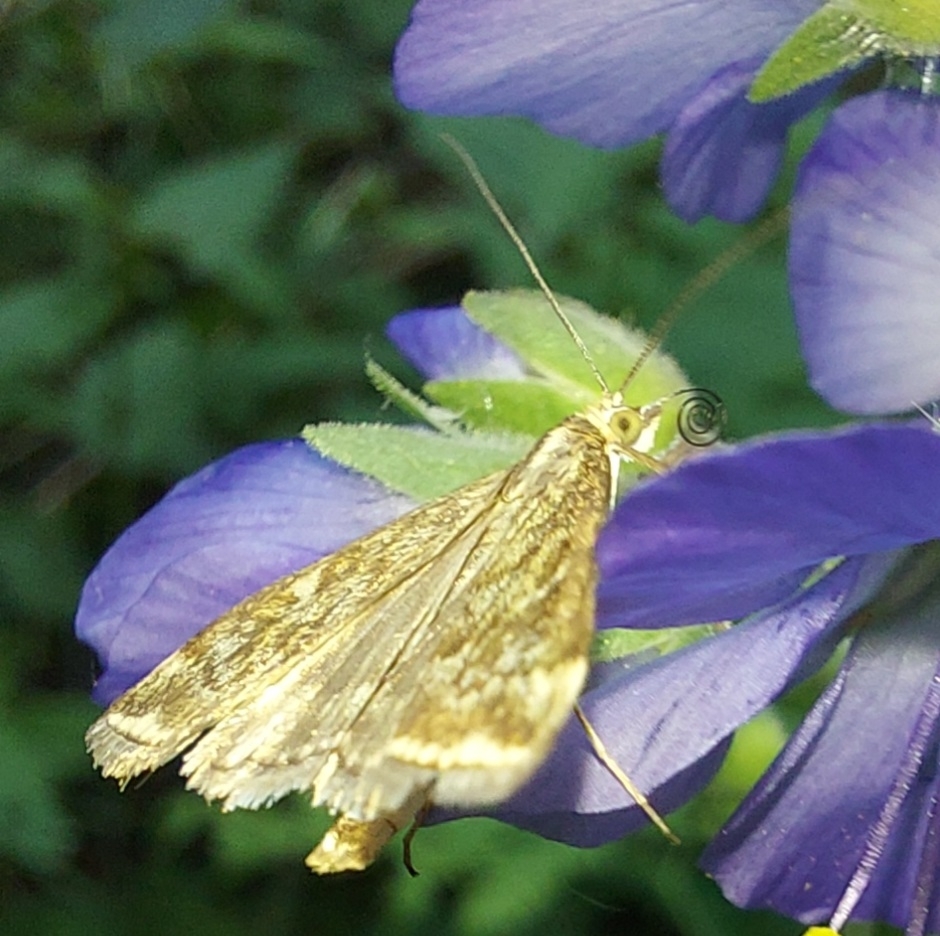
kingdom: Animalia
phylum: Arthropoda
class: Insecta
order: Lepidoptera
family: Crambidae
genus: Evergestis
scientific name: Evergestis frumentalis
